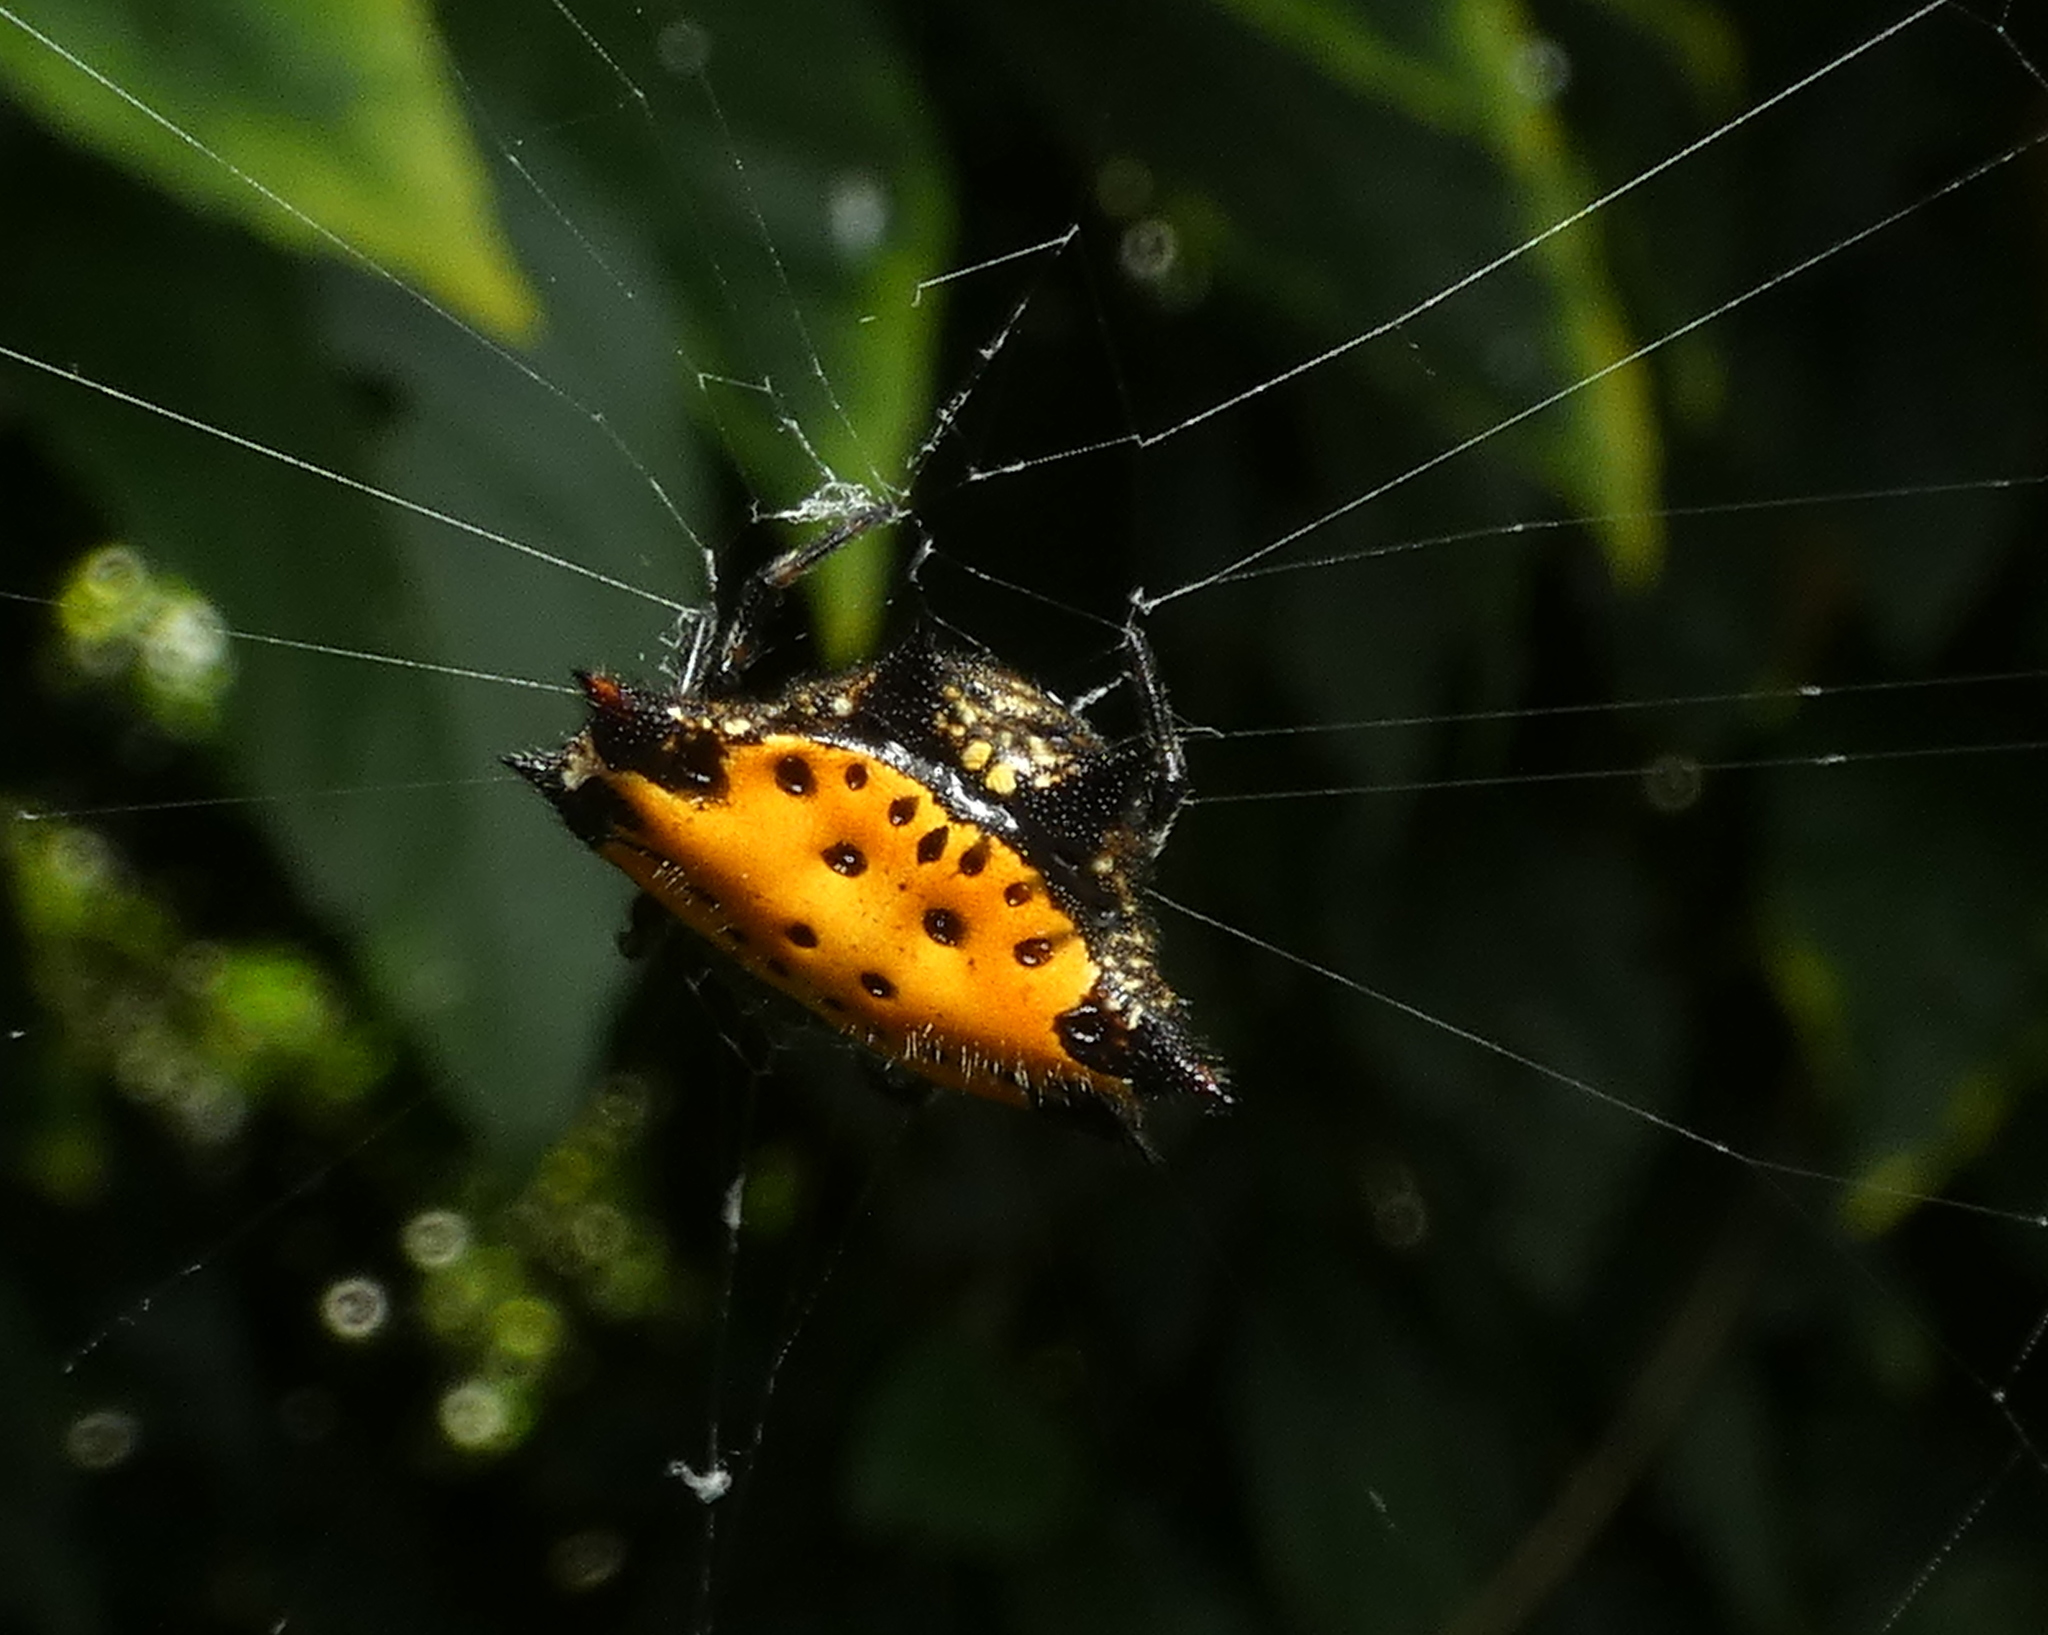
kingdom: Animalia
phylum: Arthropoda
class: Arachnida
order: Araneae
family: Araneidae
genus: Gasteracantha
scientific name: Gasteracantha cancriformis
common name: Orb weavers
